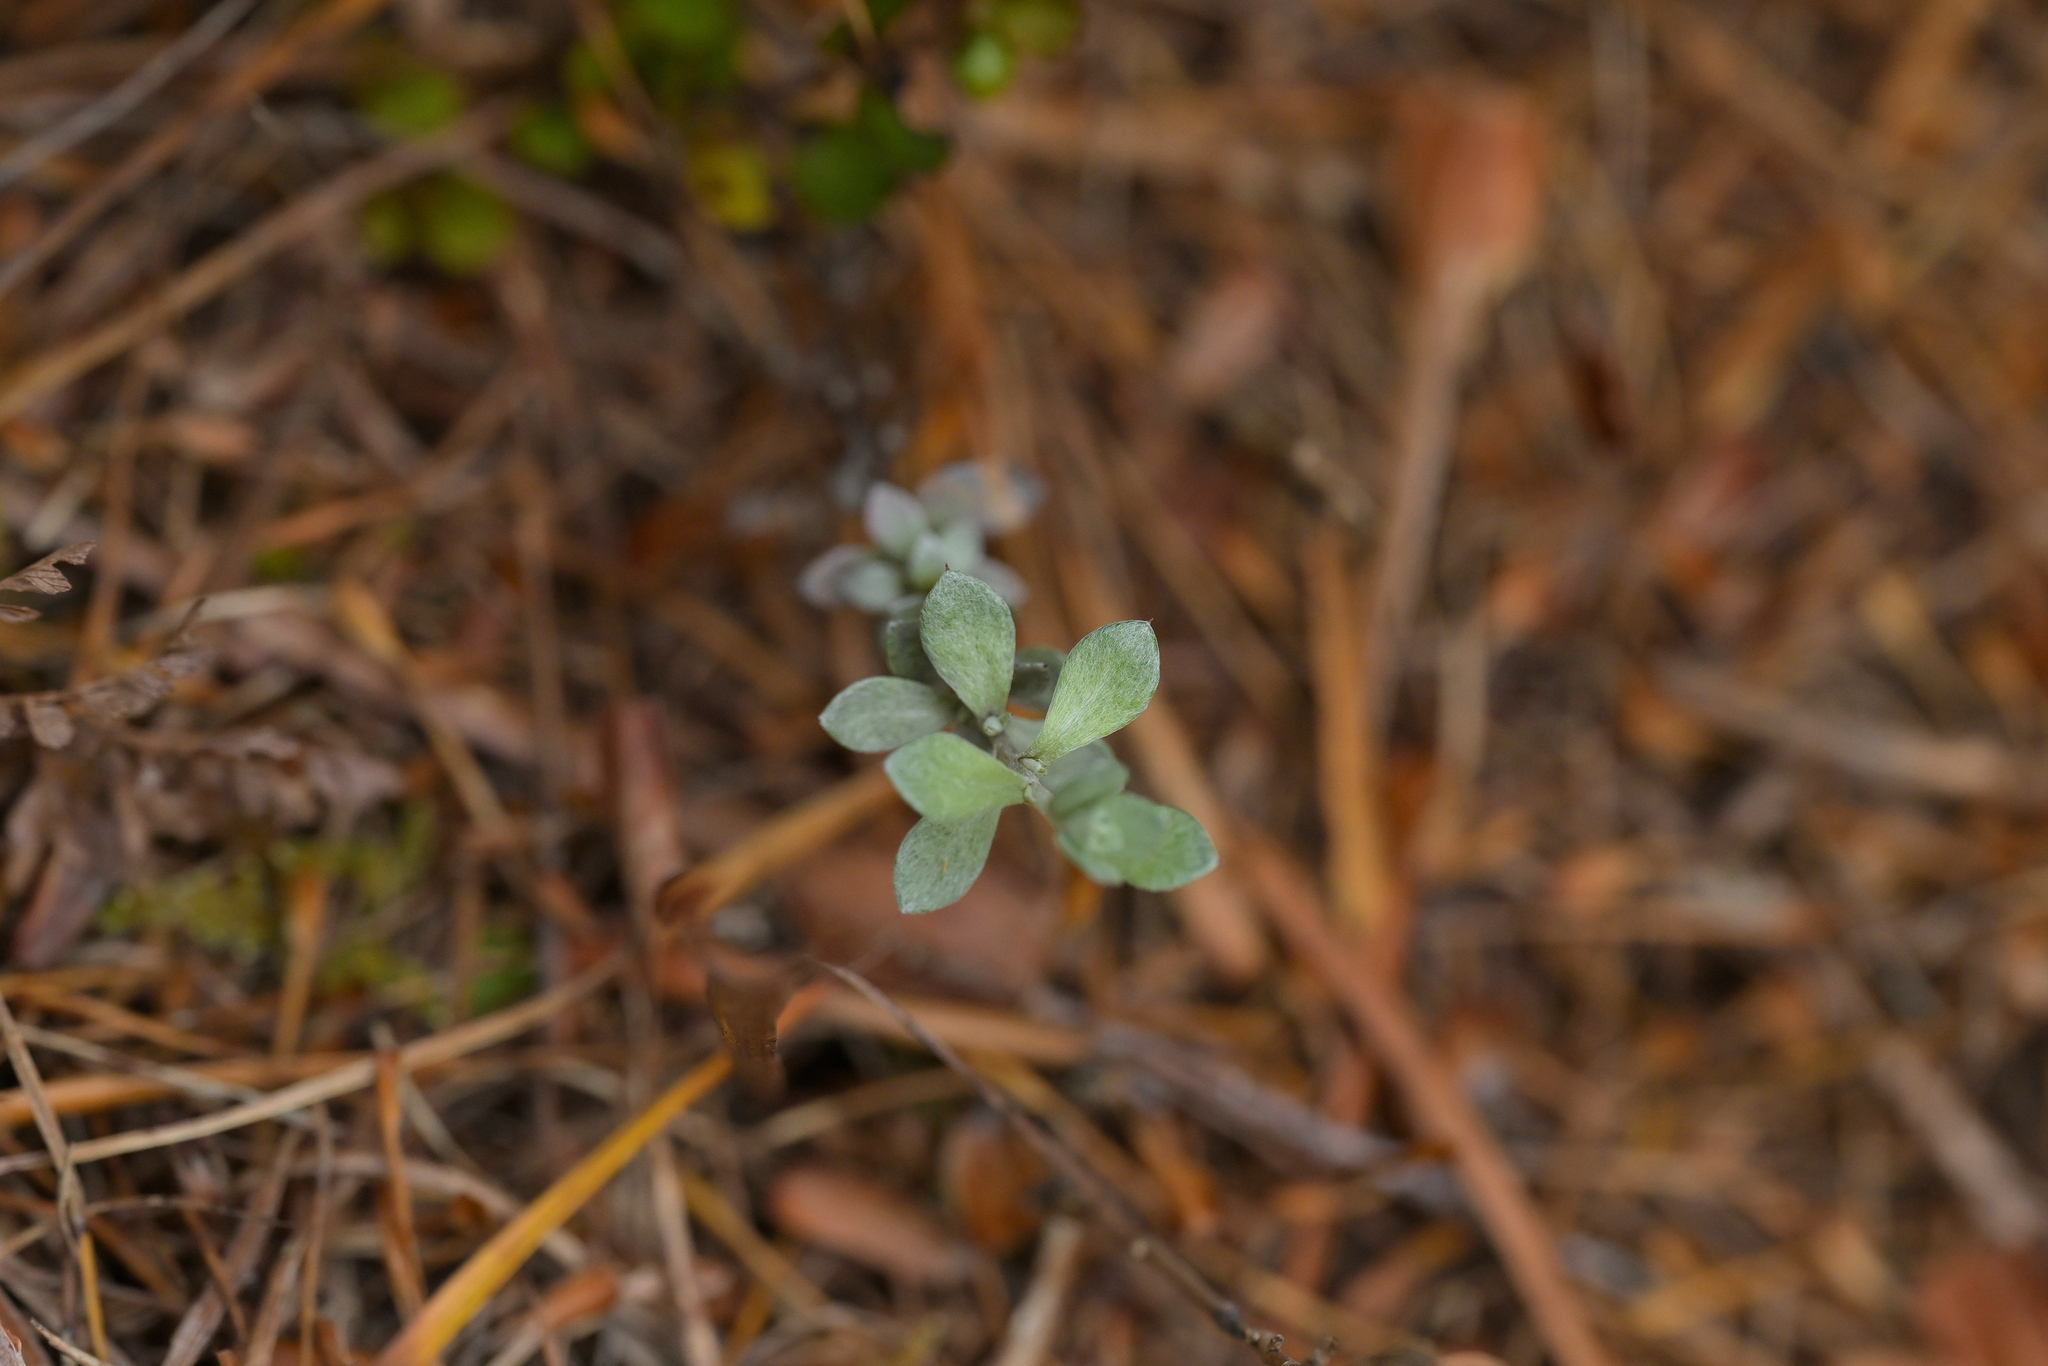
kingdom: Plantae
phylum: Tracheophyta
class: Magnoliopsida
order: Asterales
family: Asteraceae
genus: Anaphalioides
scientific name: Anaphalioides bellidioides
